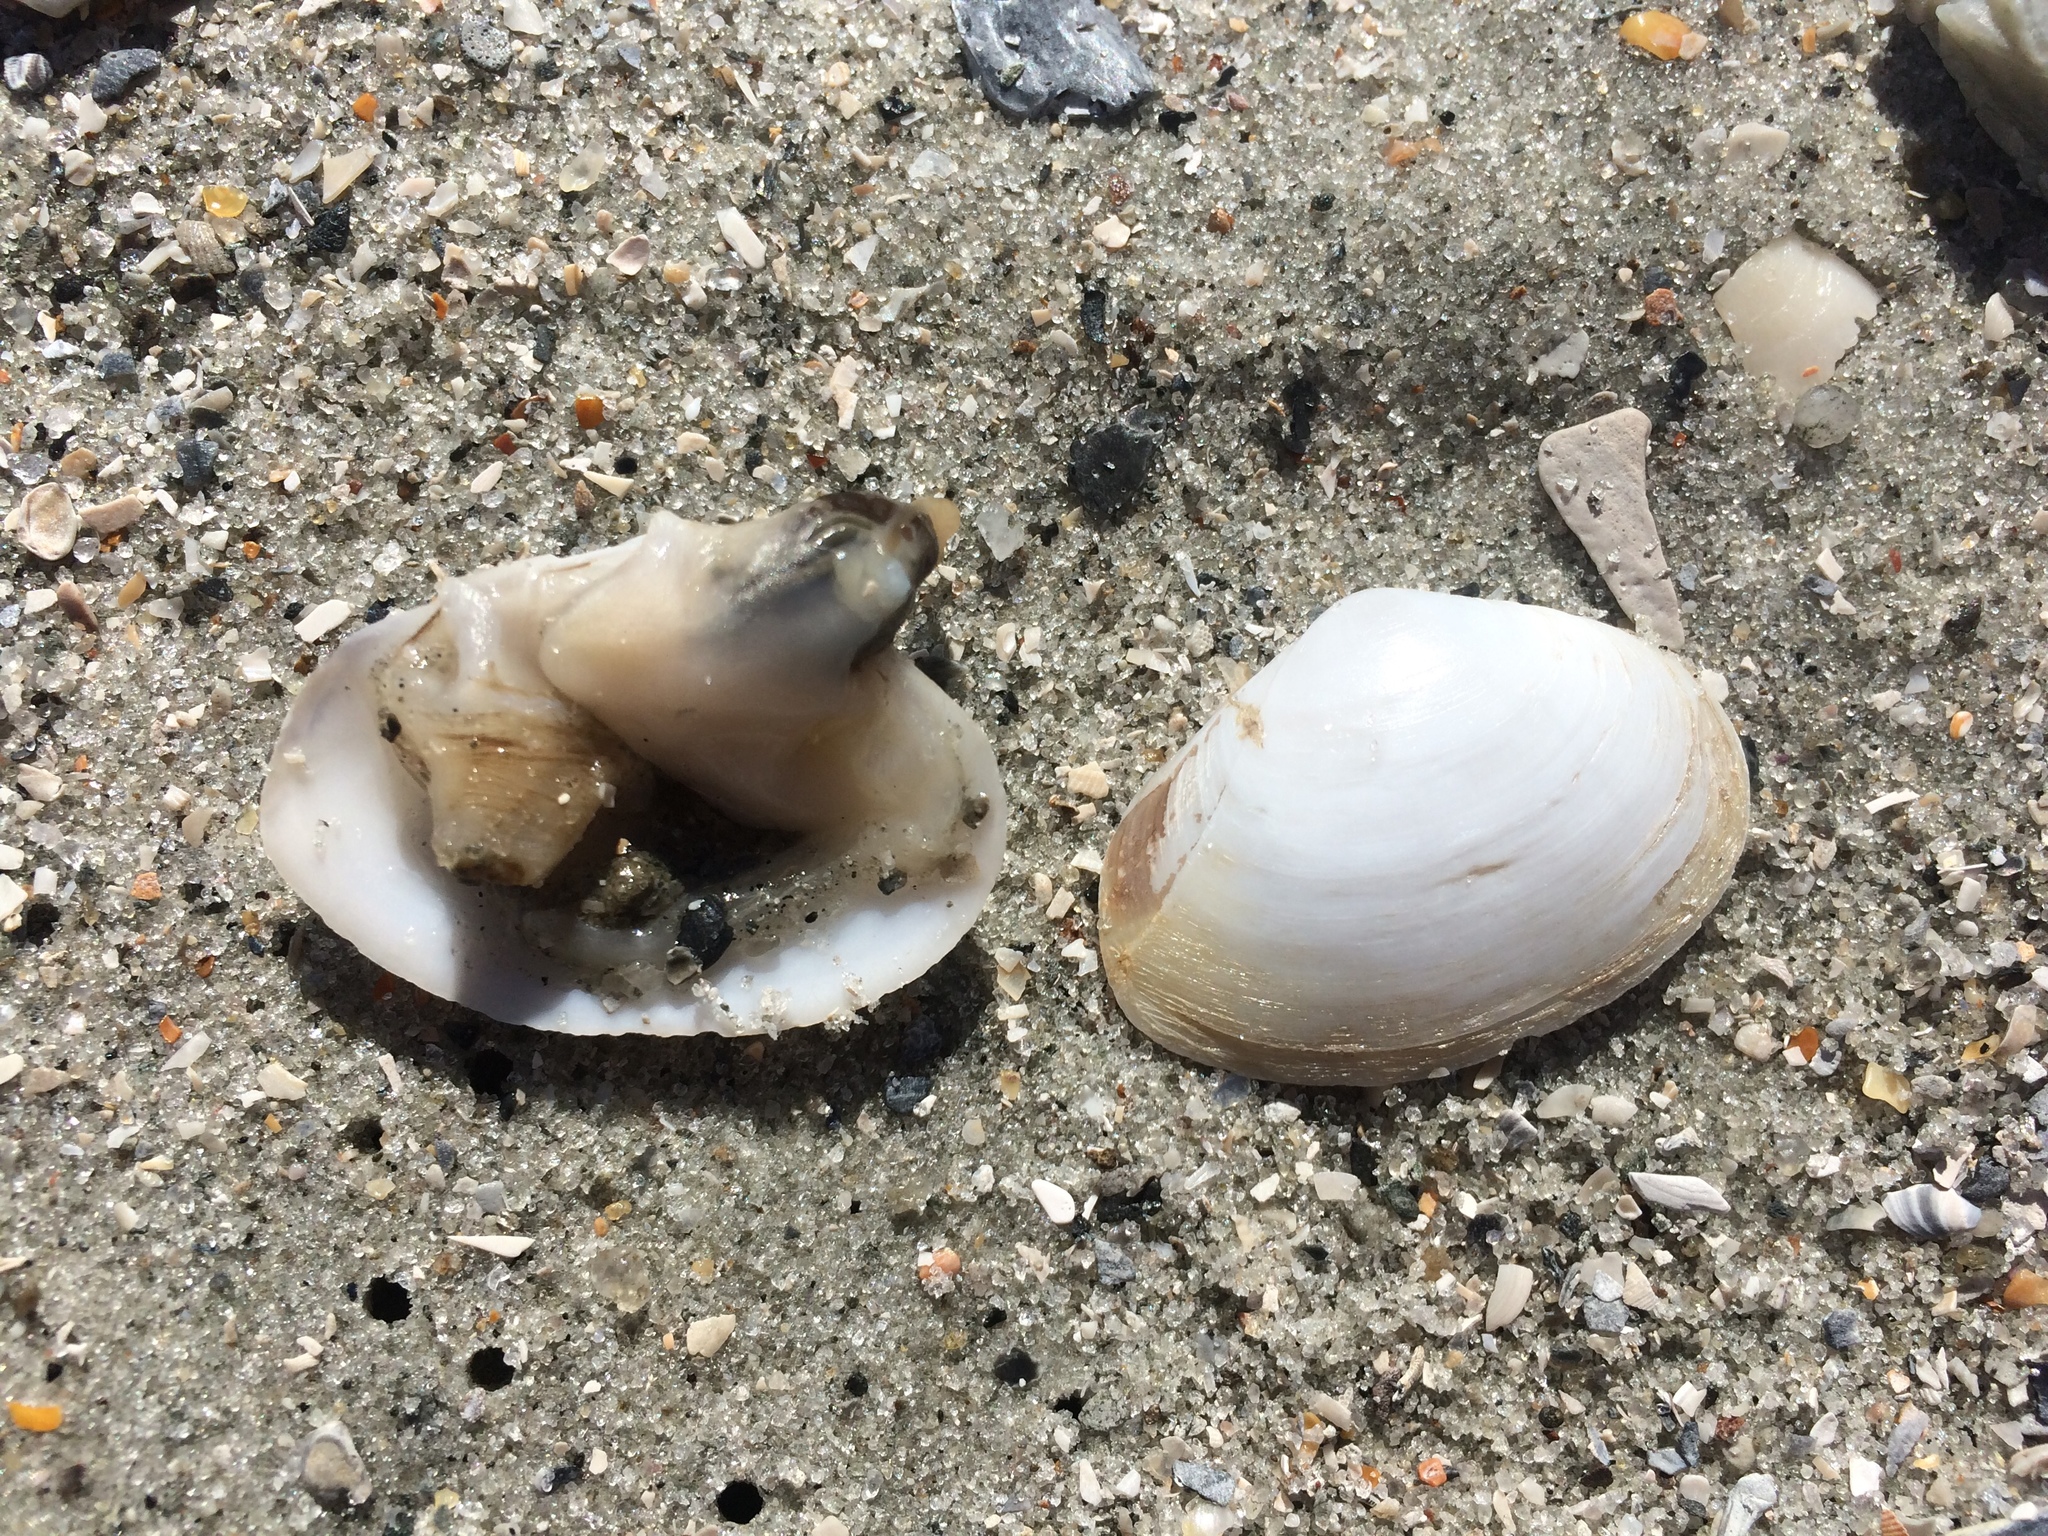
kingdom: Animalia
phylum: Mollusca
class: Bivalvia
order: Venerida
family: Mactridae
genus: Mactrotoma
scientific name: Mactrotoma fragilis
